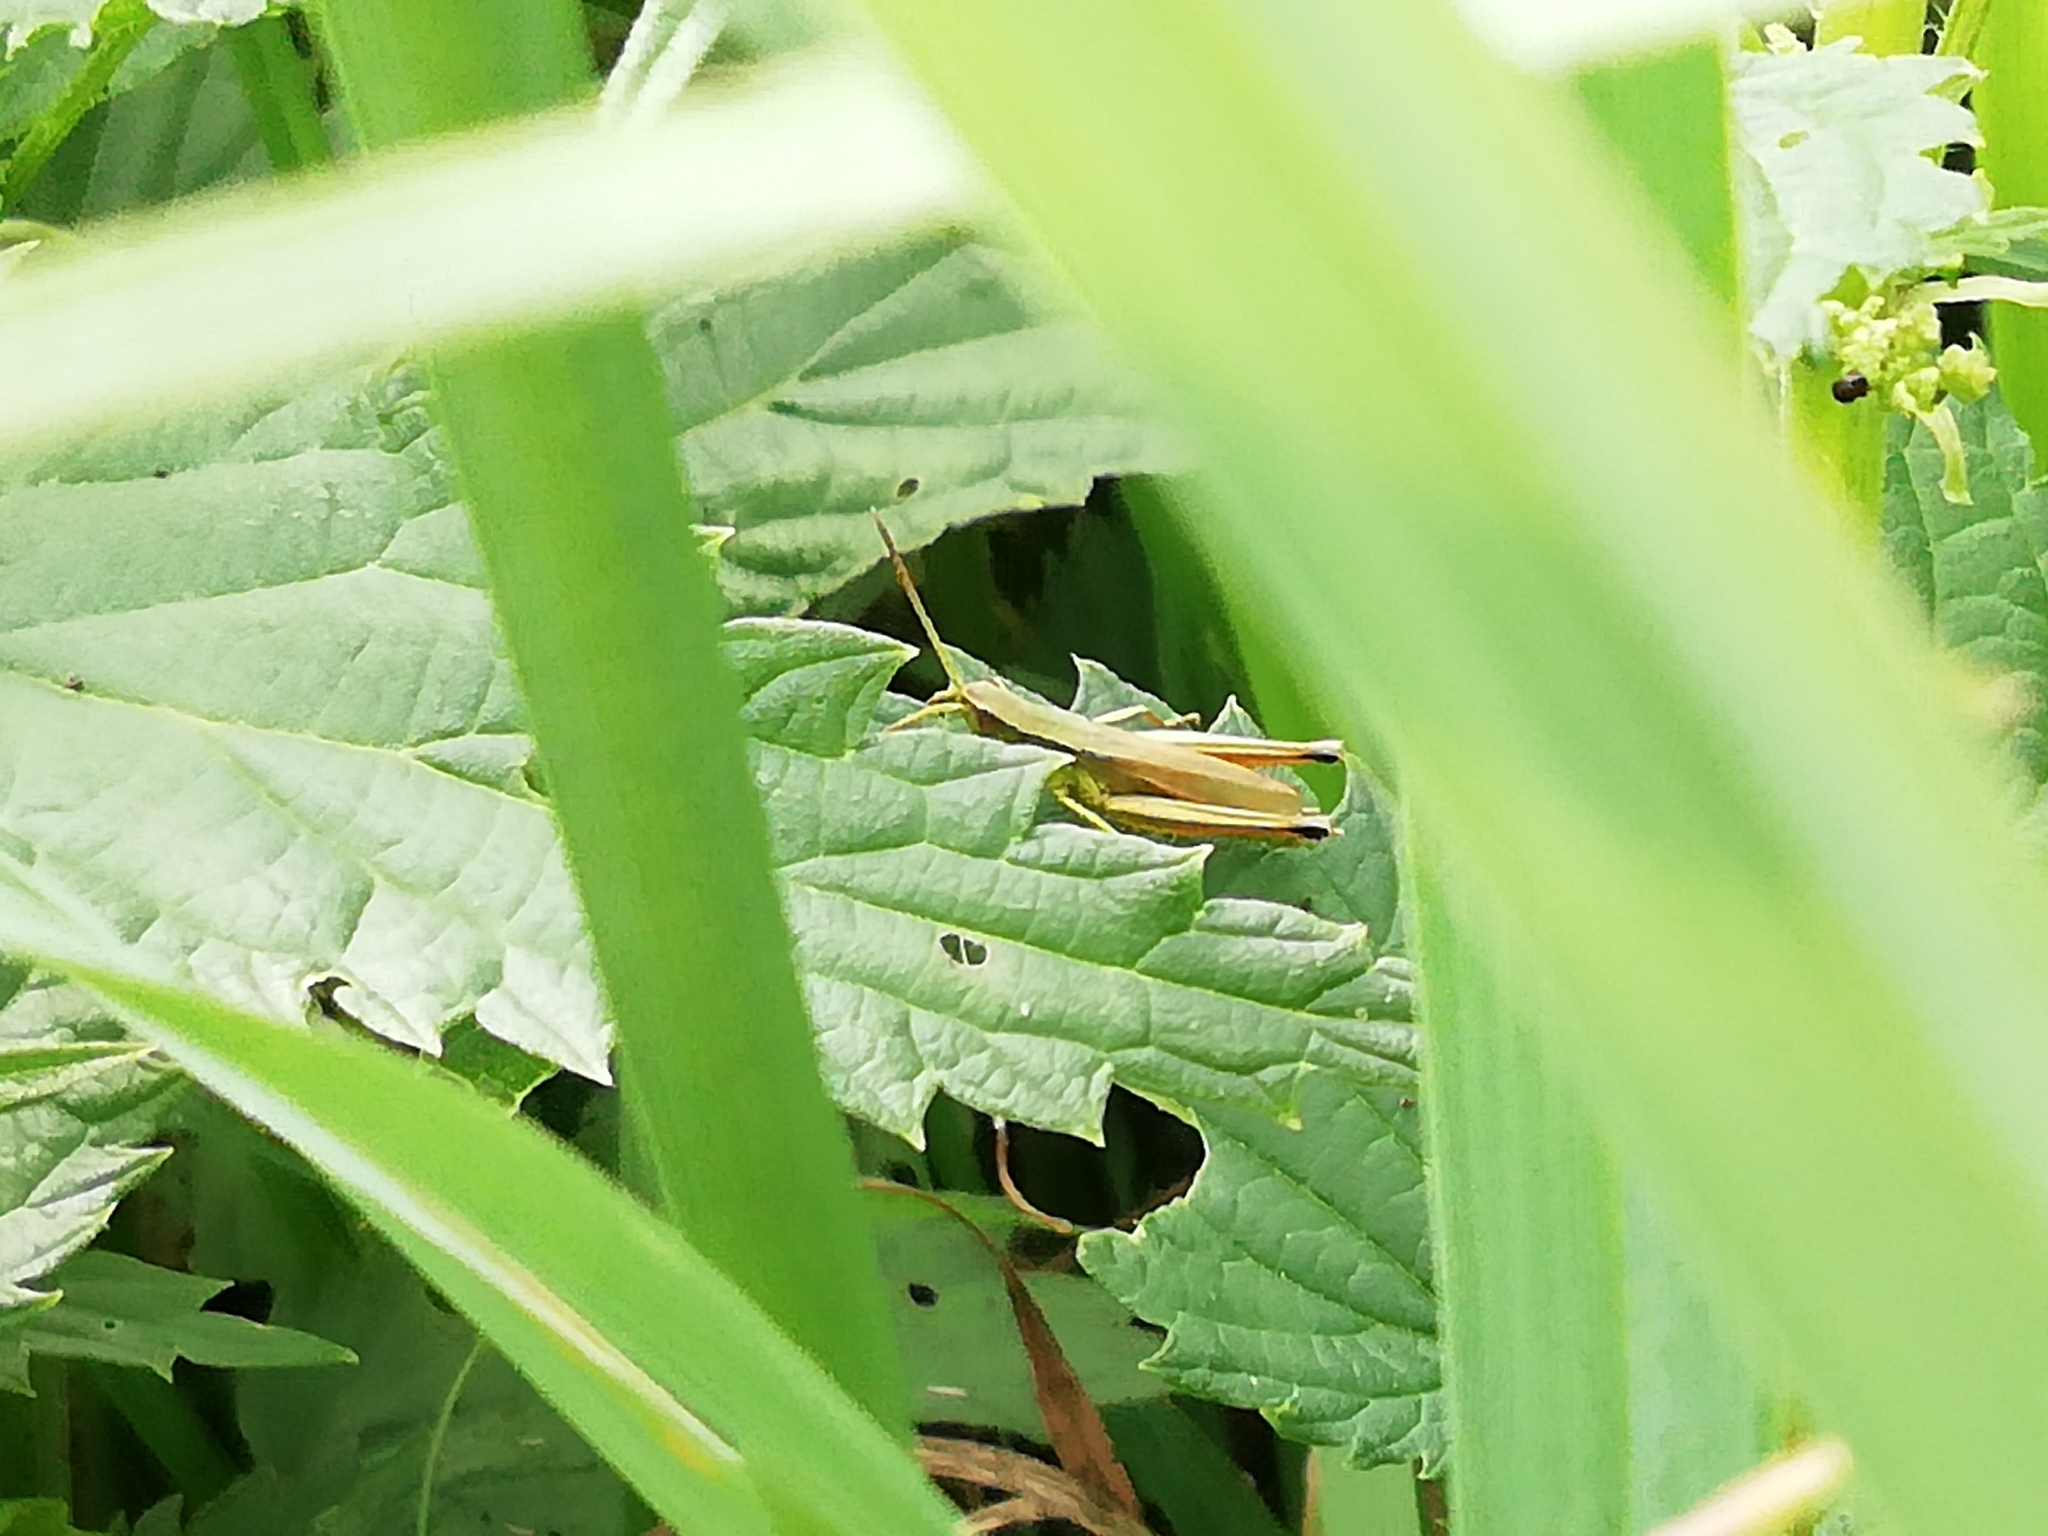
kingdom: Animalia
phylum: Arthropoda
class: Insecta
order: Orthoptera
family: Acrididae
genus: Chrysochraon
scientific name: Chrysochraon dispar
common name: Large gold grasshopper
